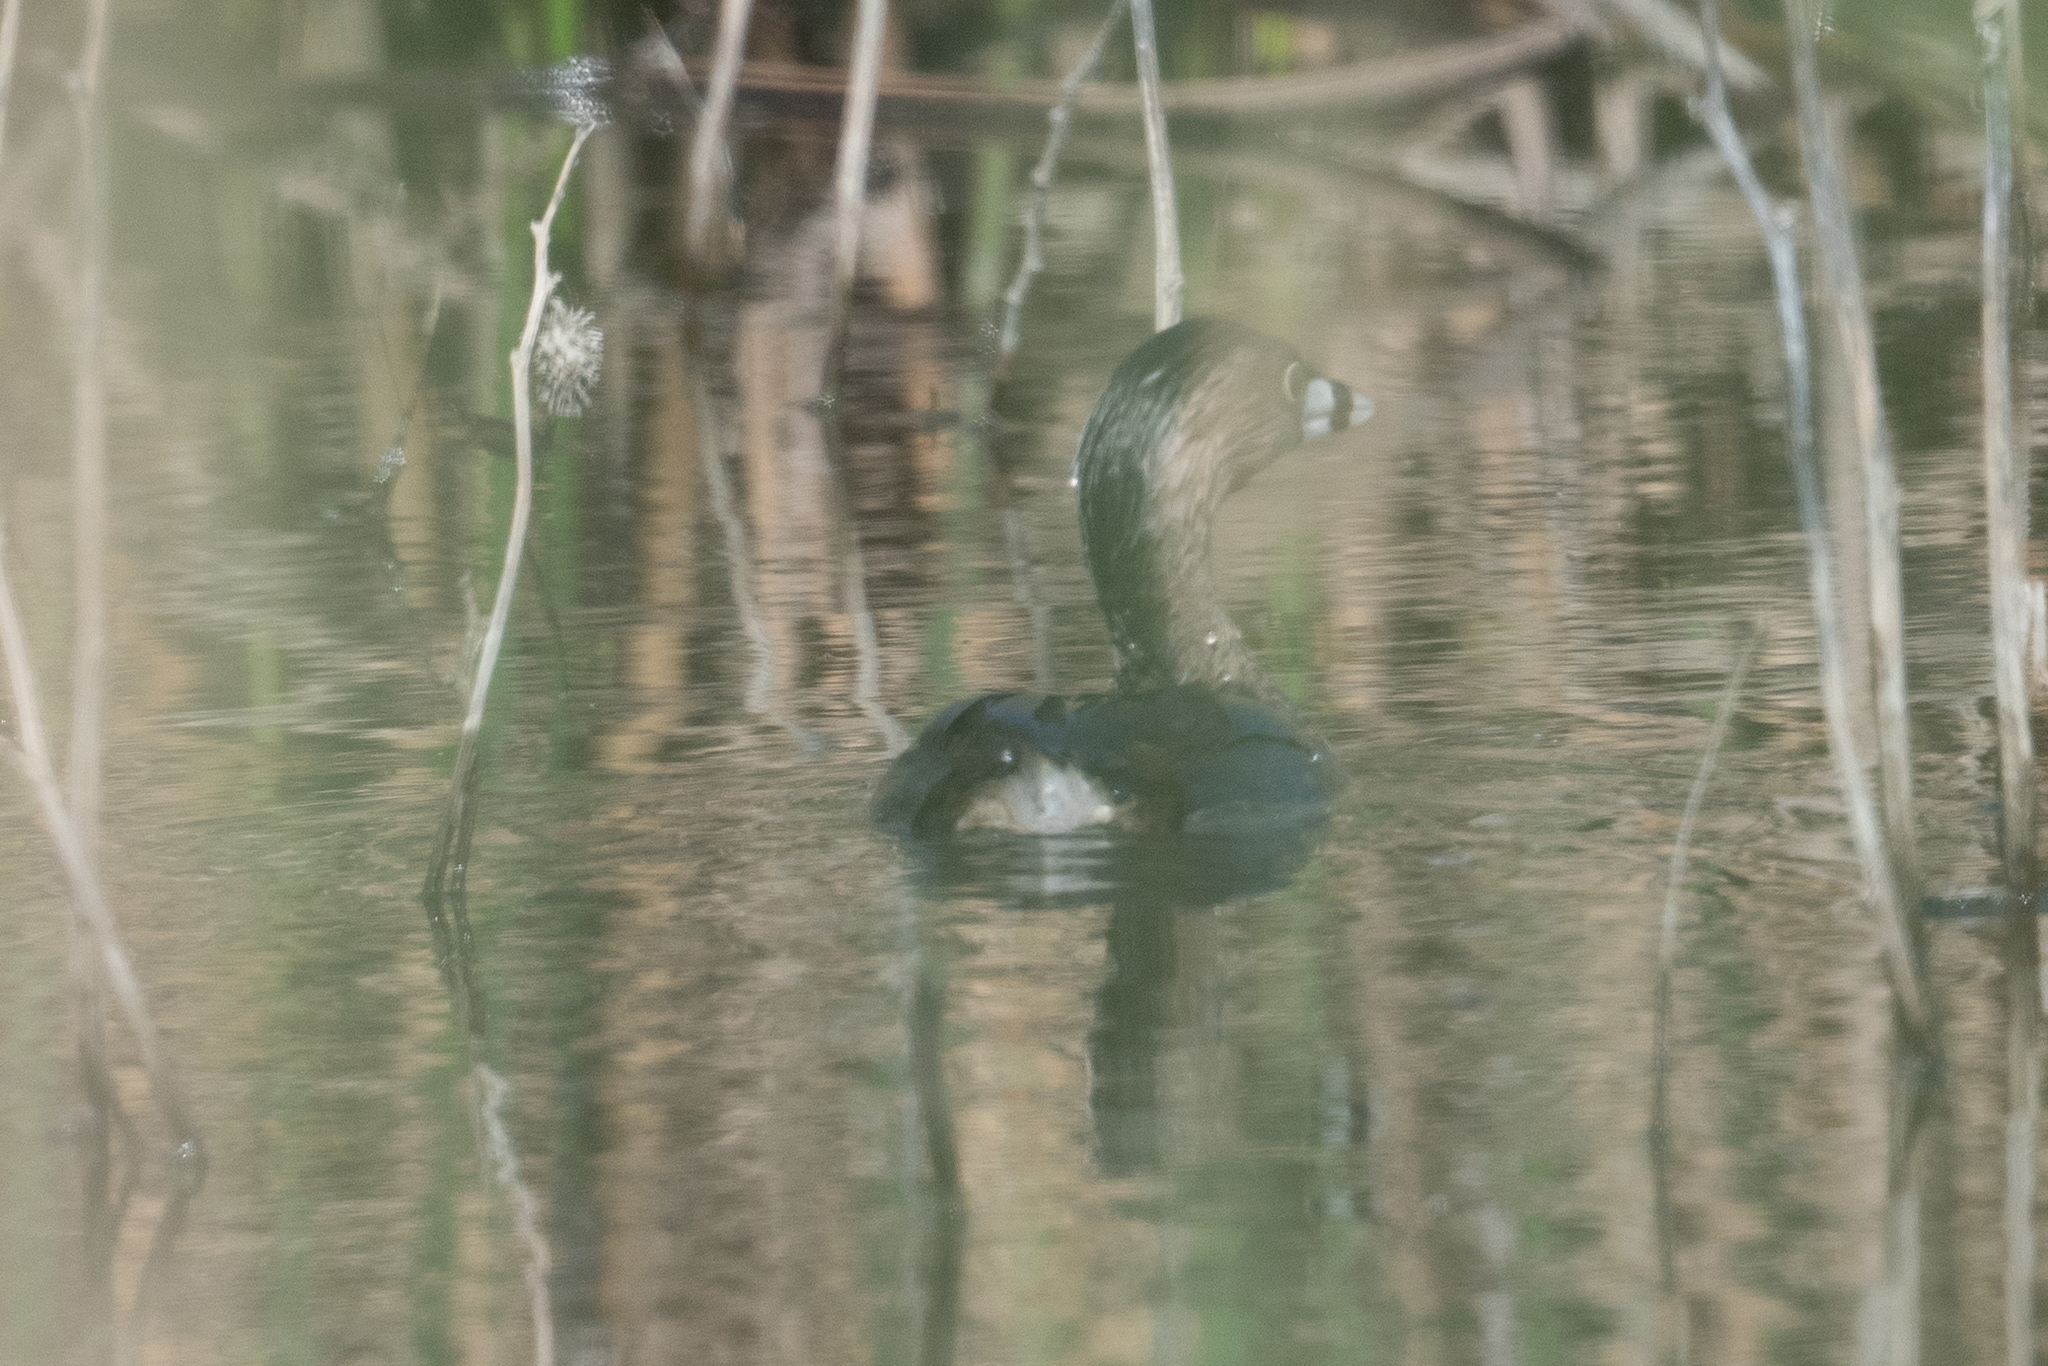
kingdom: Animalia
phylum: Chordata
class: Aves
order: Podicipediformes
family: Podicipedidae
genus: Podilymbus
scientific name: Podilymbus podiceps
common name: Pied-billed grebe
